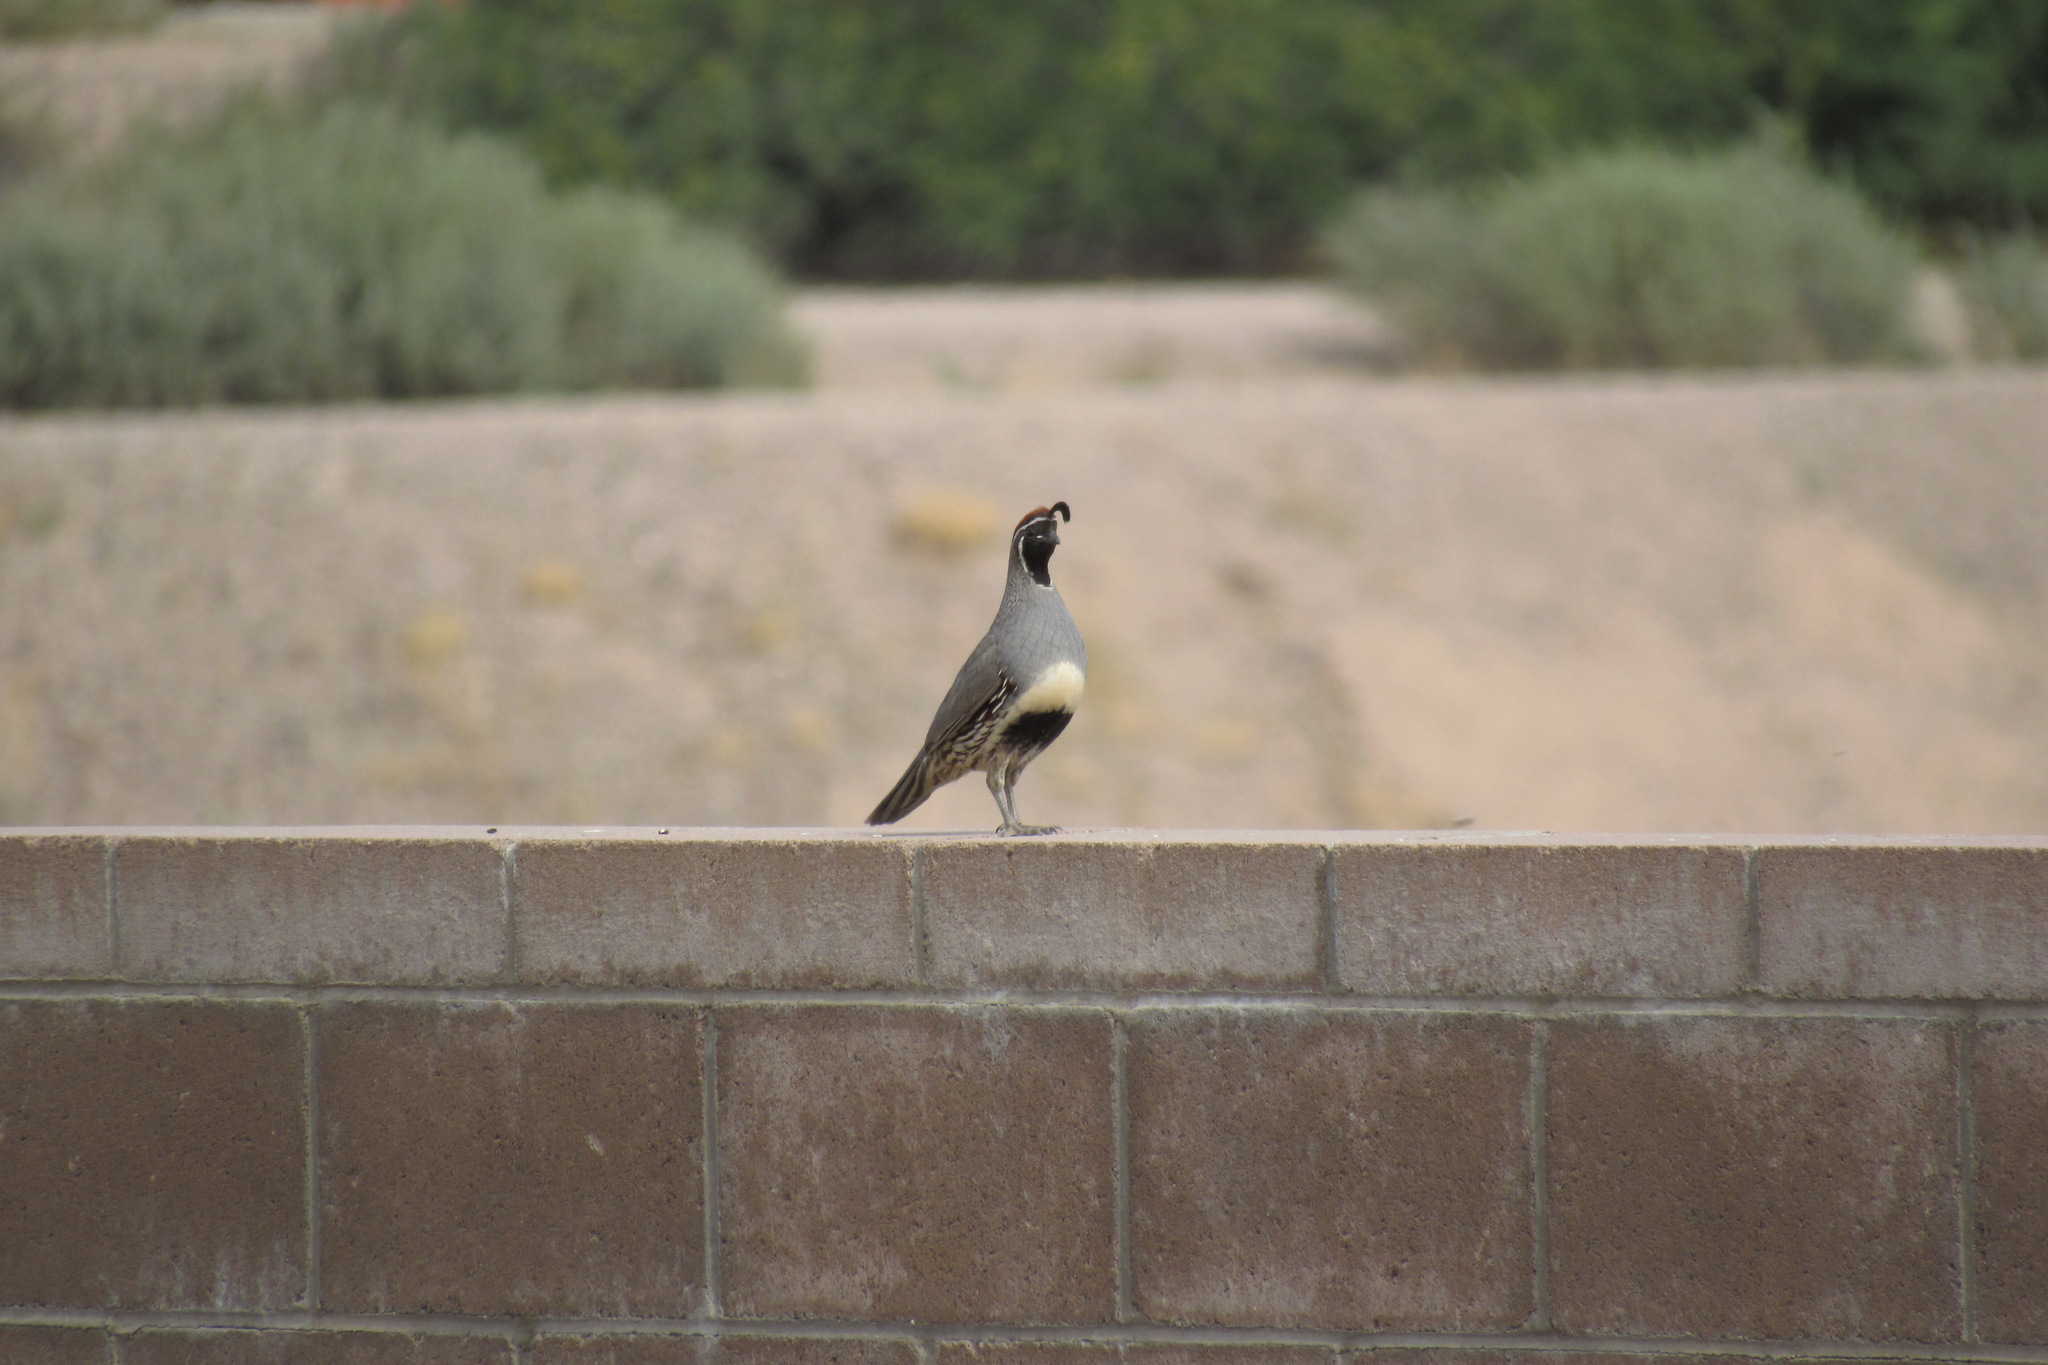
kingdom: Animalia
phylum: Chordata
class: Aves
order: Galliformes
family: Odontophoridae
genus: Callipepla
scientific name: Callipepla gambelii
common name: Gambel's quail
